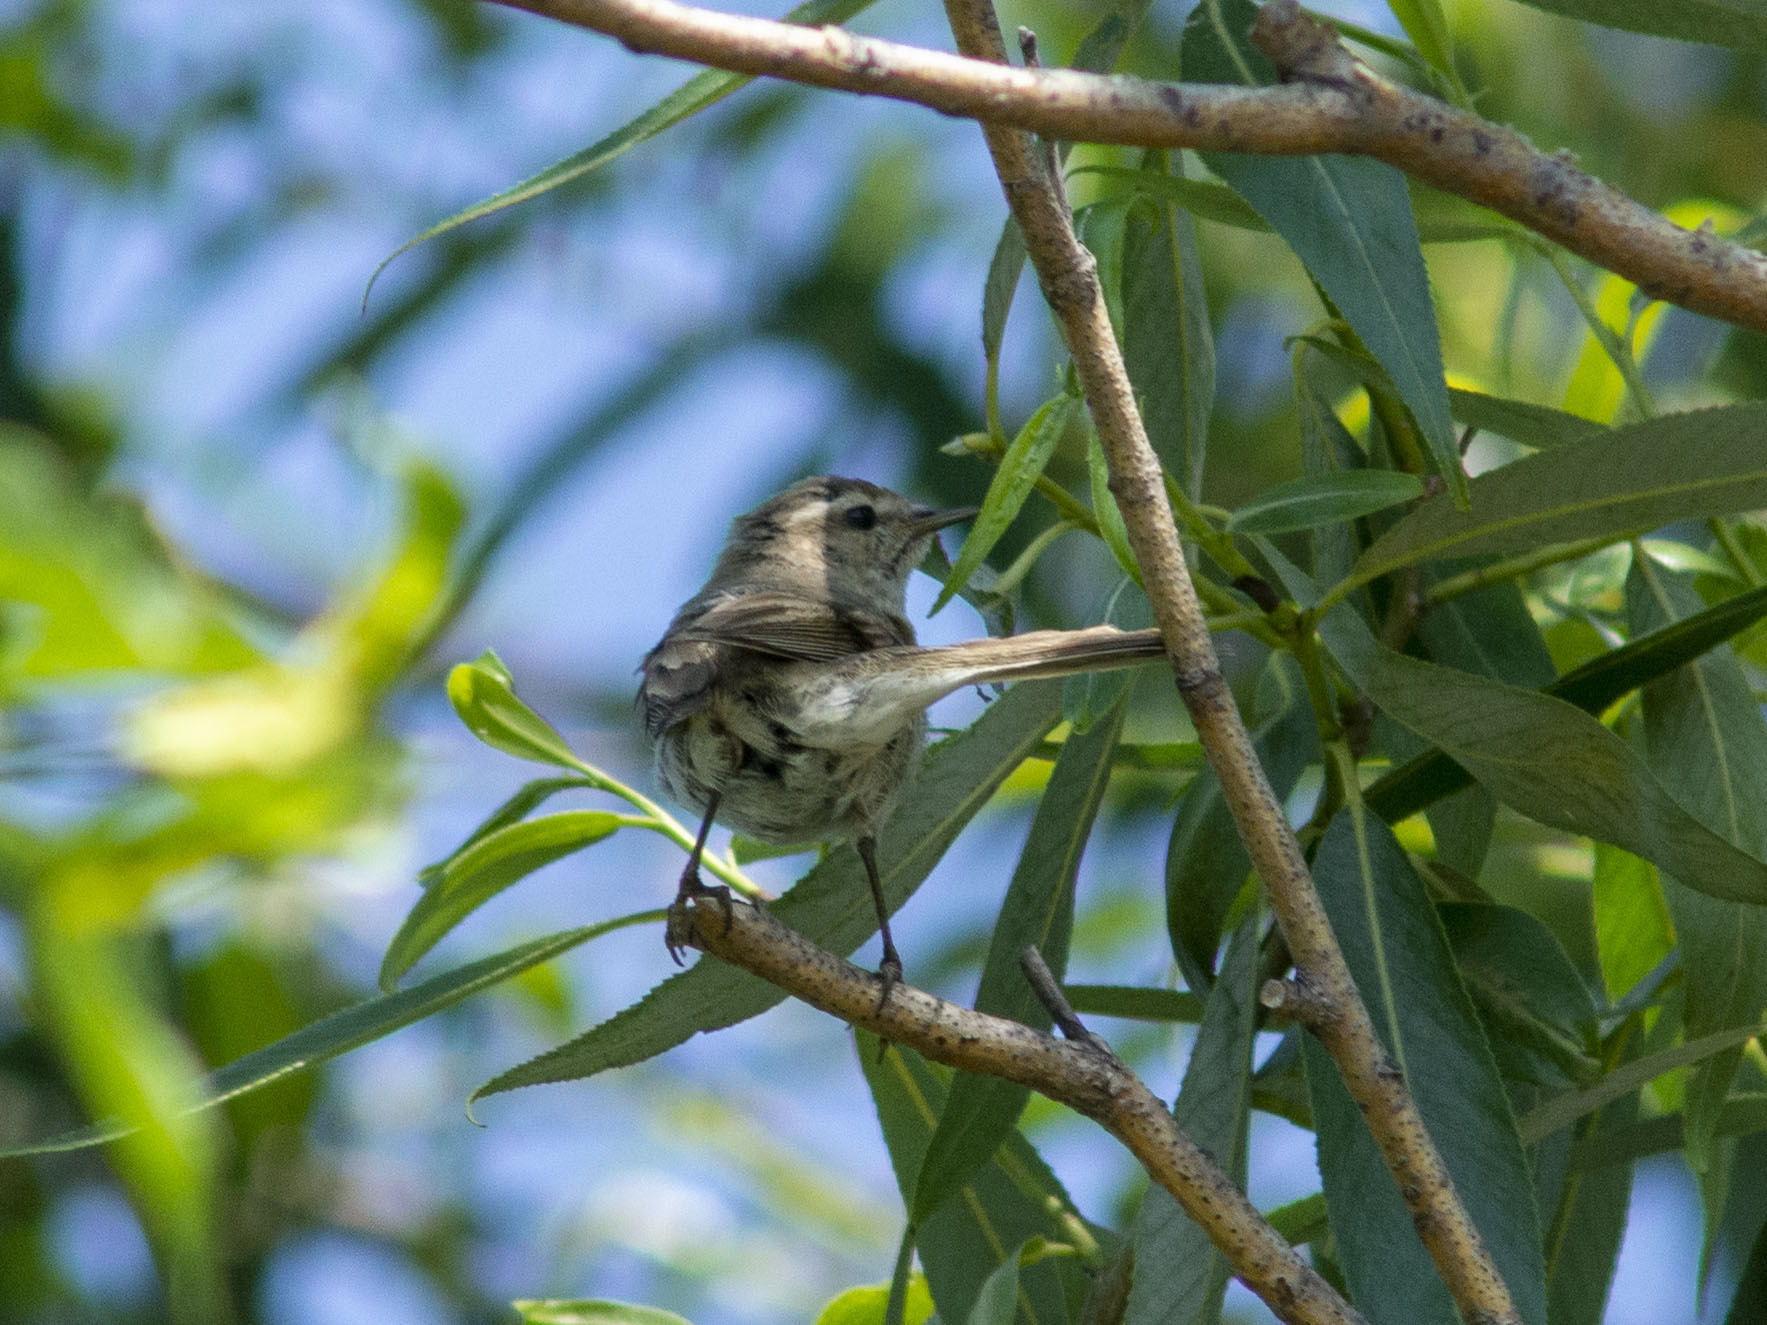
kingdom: Animalia
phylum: Chordata
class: Aves
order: Passeriformes
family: Phylloscopidae
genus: Phylloscopus
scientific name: Phylloscopus collybita
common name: Common chiffchaff
